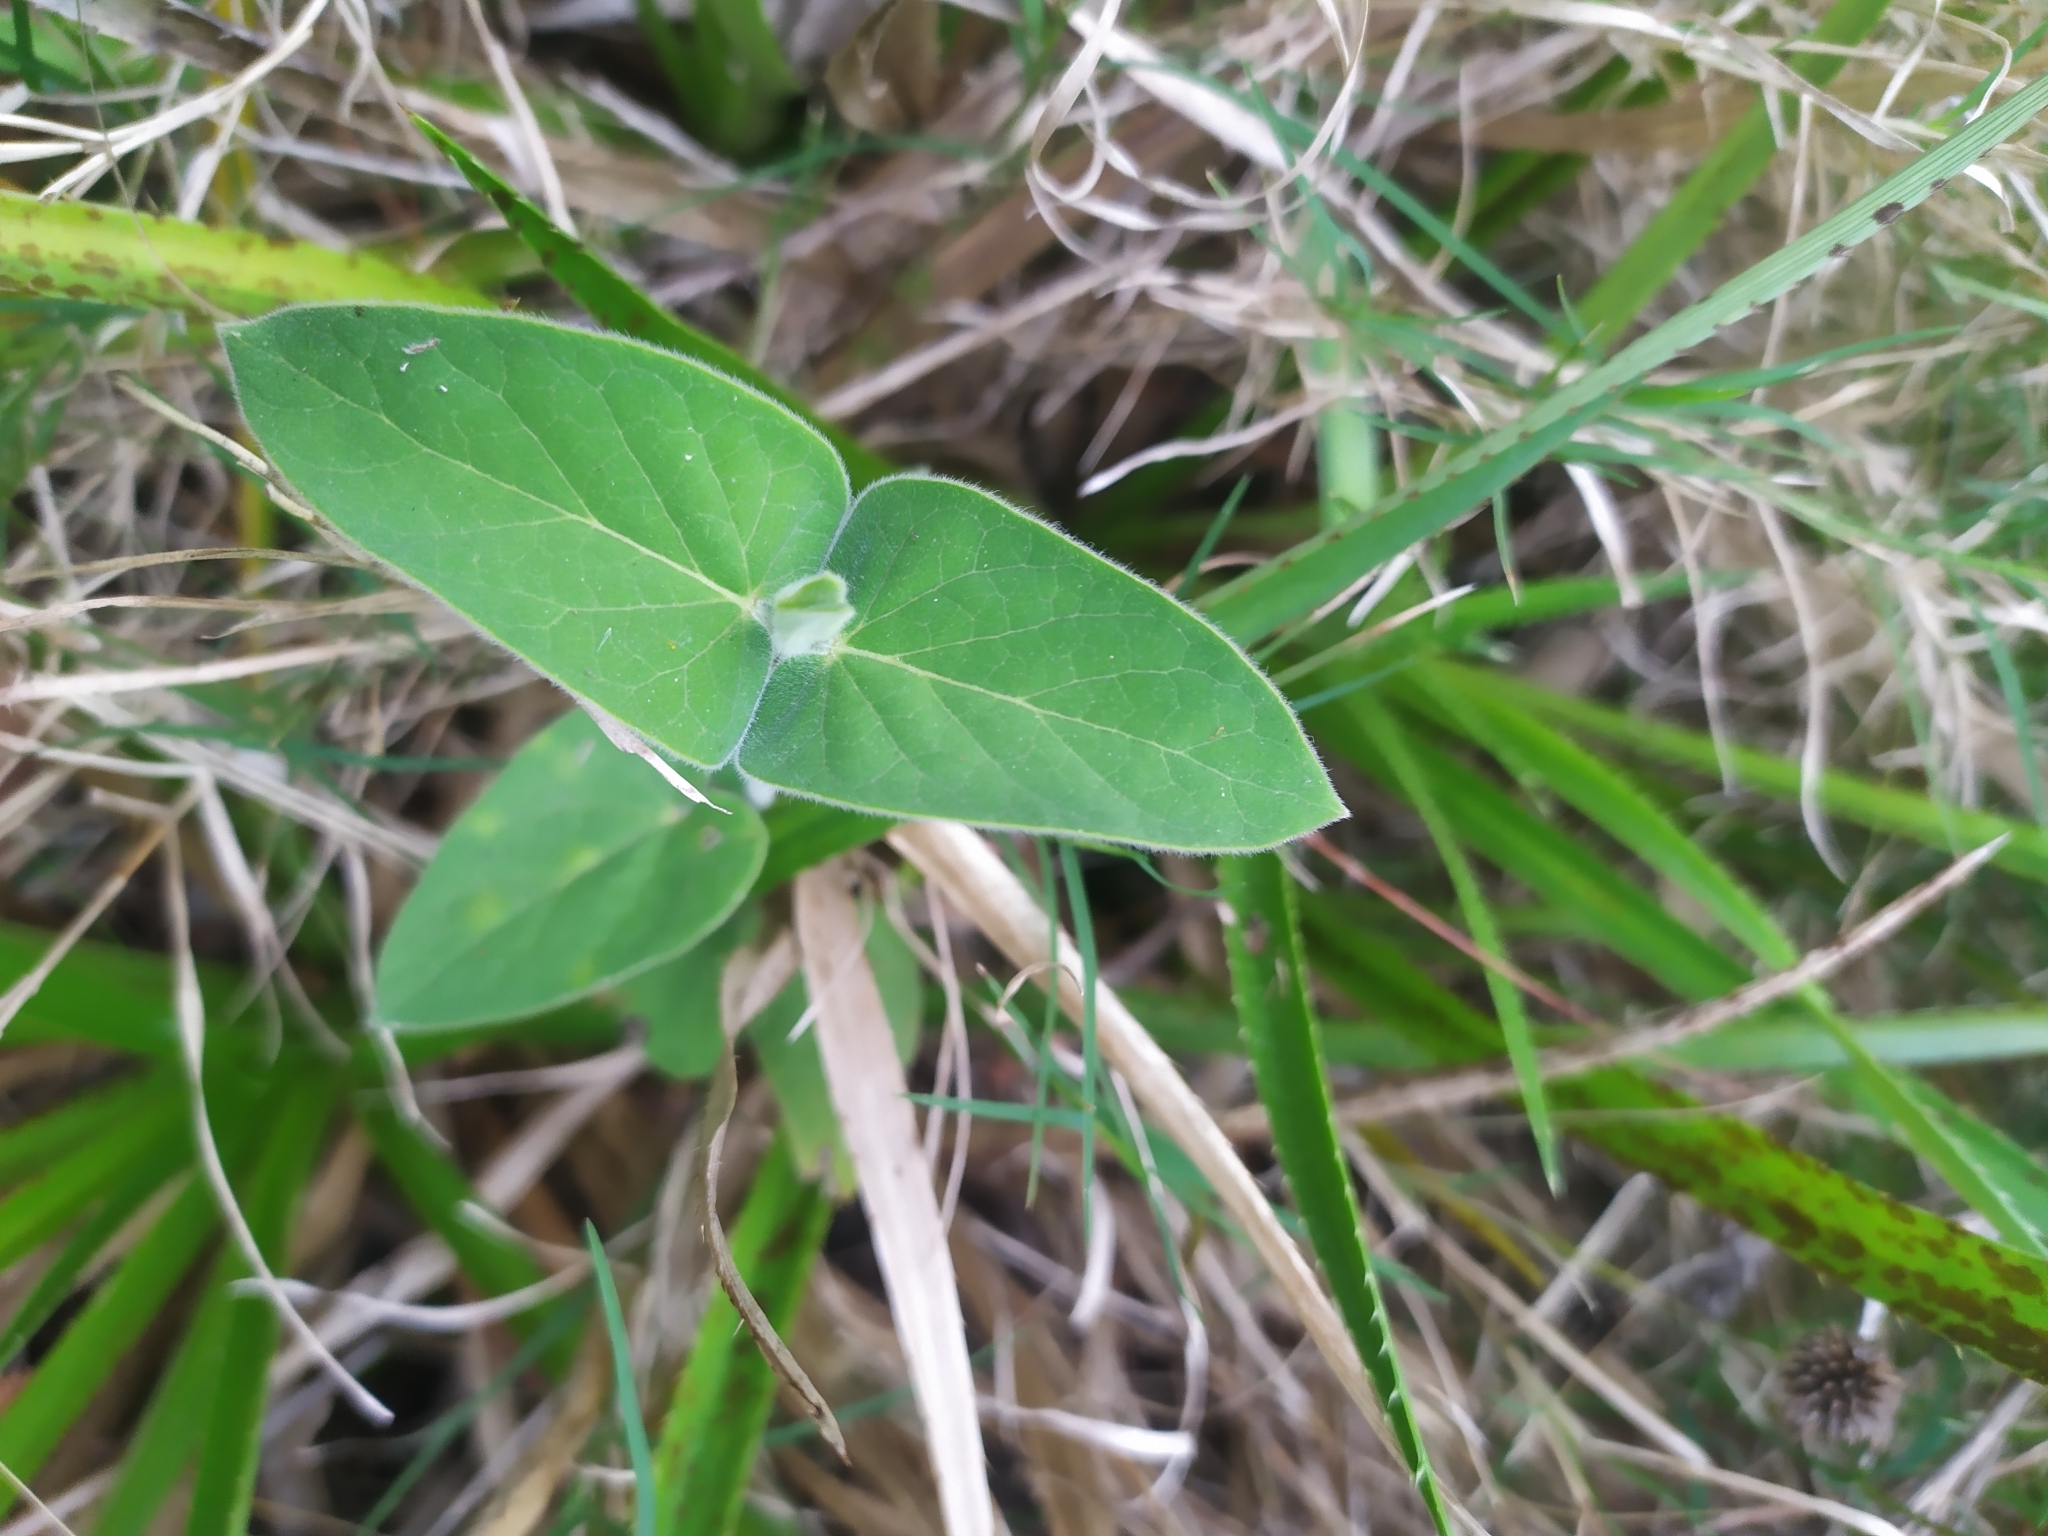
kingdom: Plantae
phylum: Tracheophyta
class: Magnoliopsida
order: Gentianales
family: Apocynaceae
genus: Oxypetalum
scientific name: Oxypetalum solanoides
